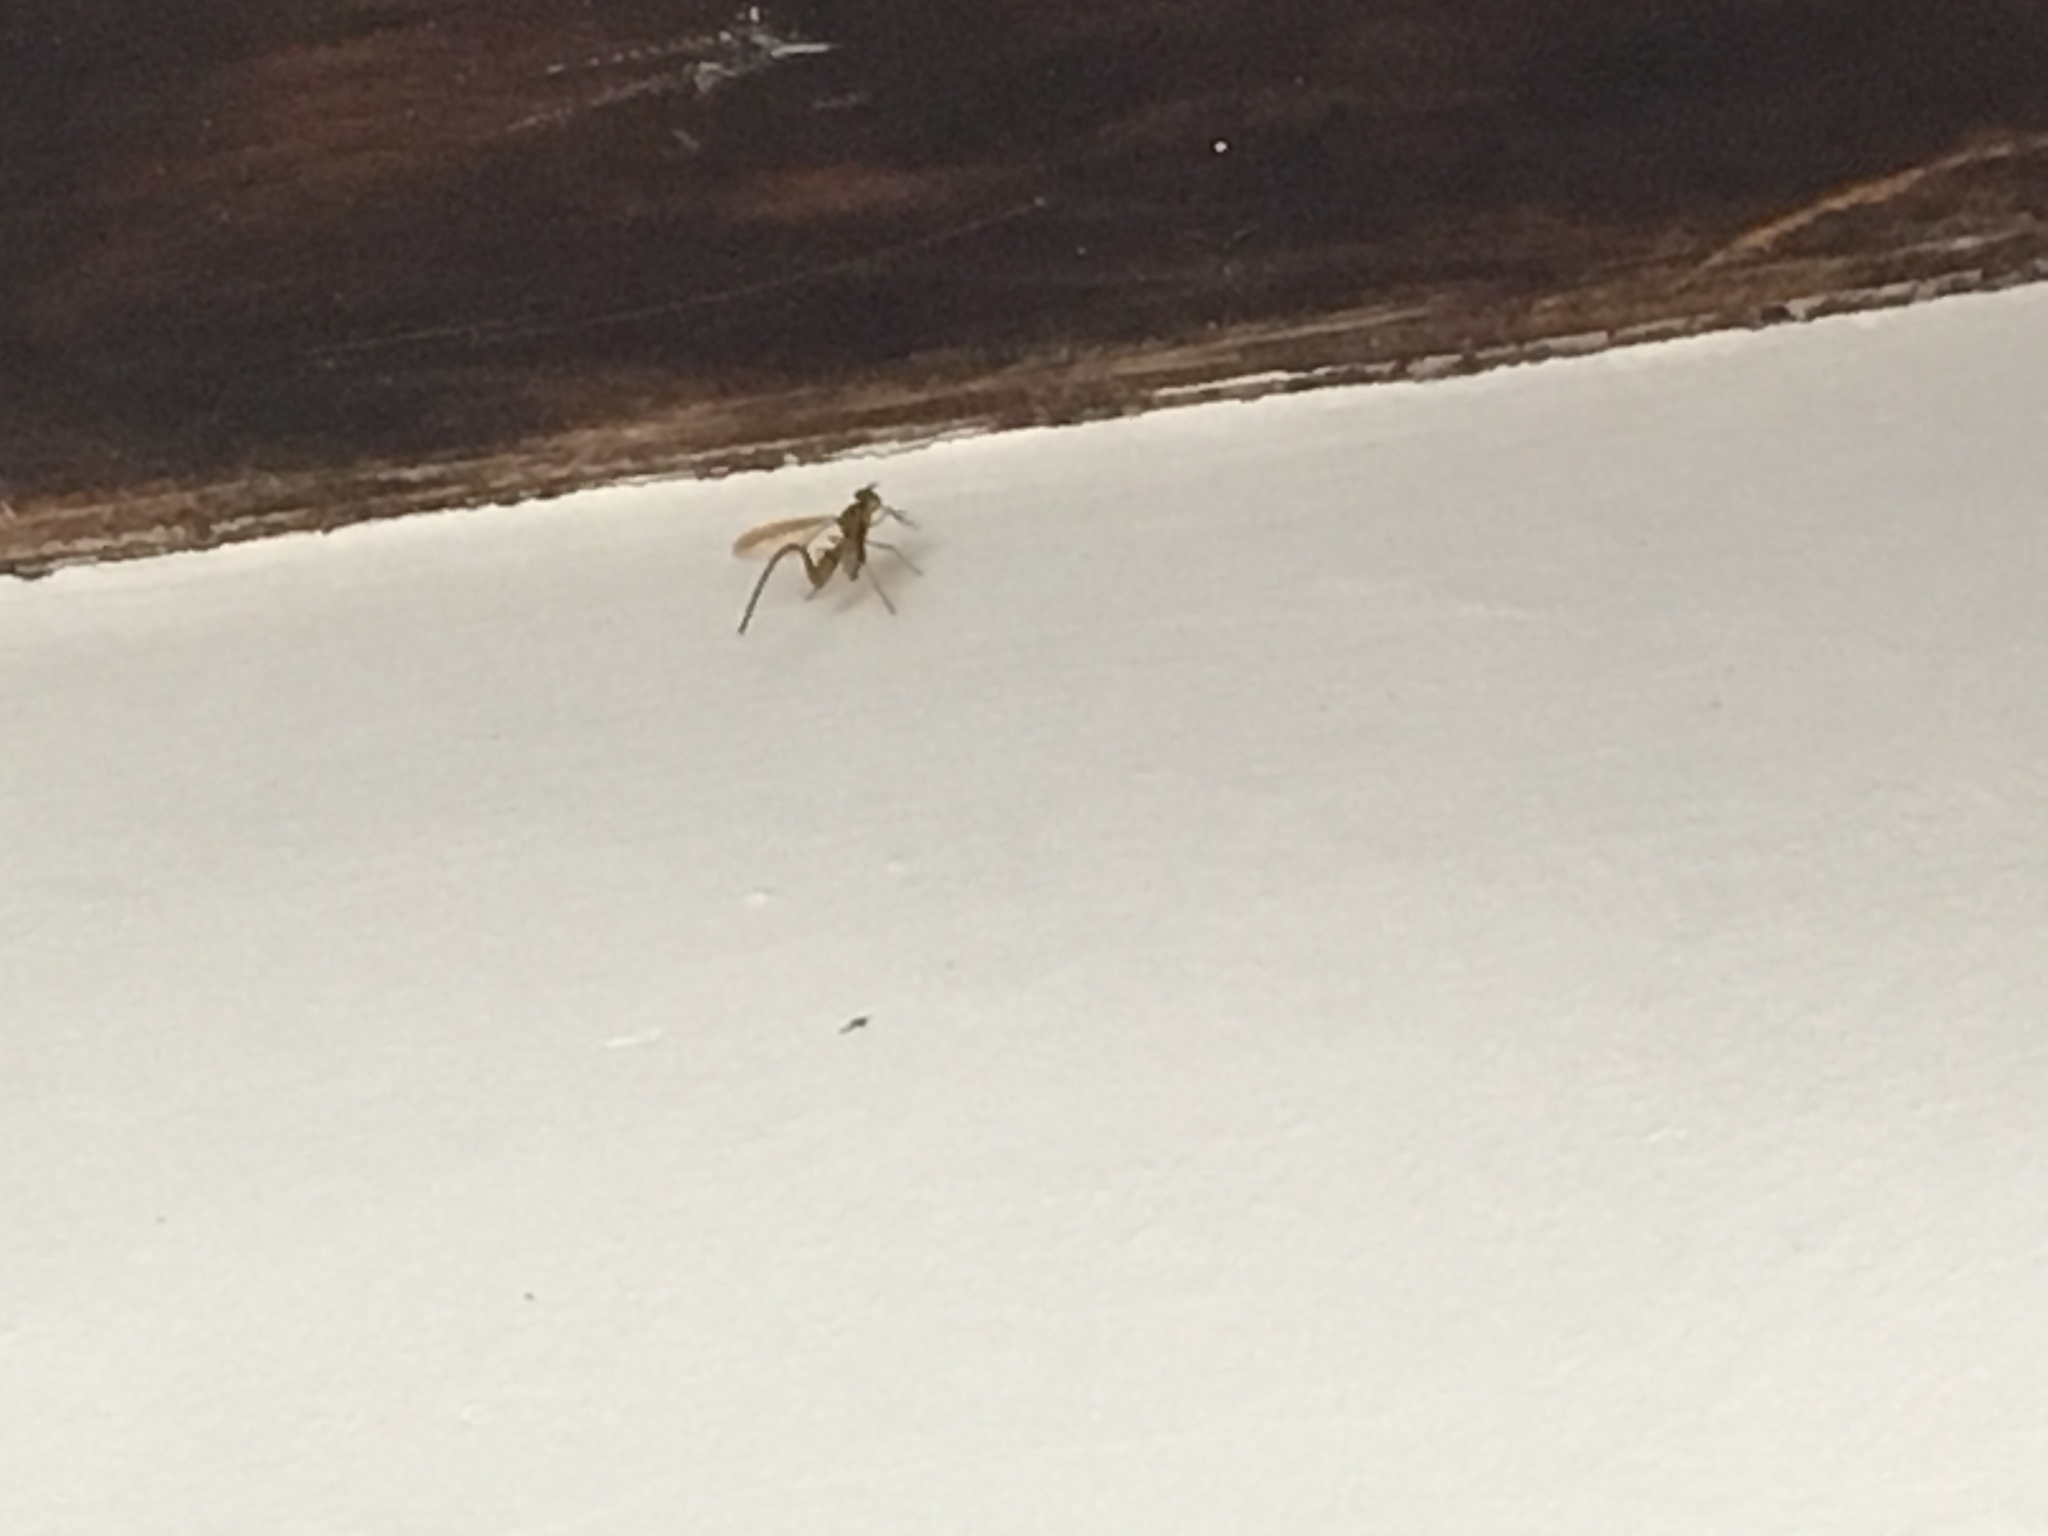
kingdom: Animalia
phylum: Arthropoda
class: Insecta
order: Diptera
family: Tephritidae
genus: Anastrepha
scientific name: Anastrepha curvicauda
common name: Papaya fruit fly
